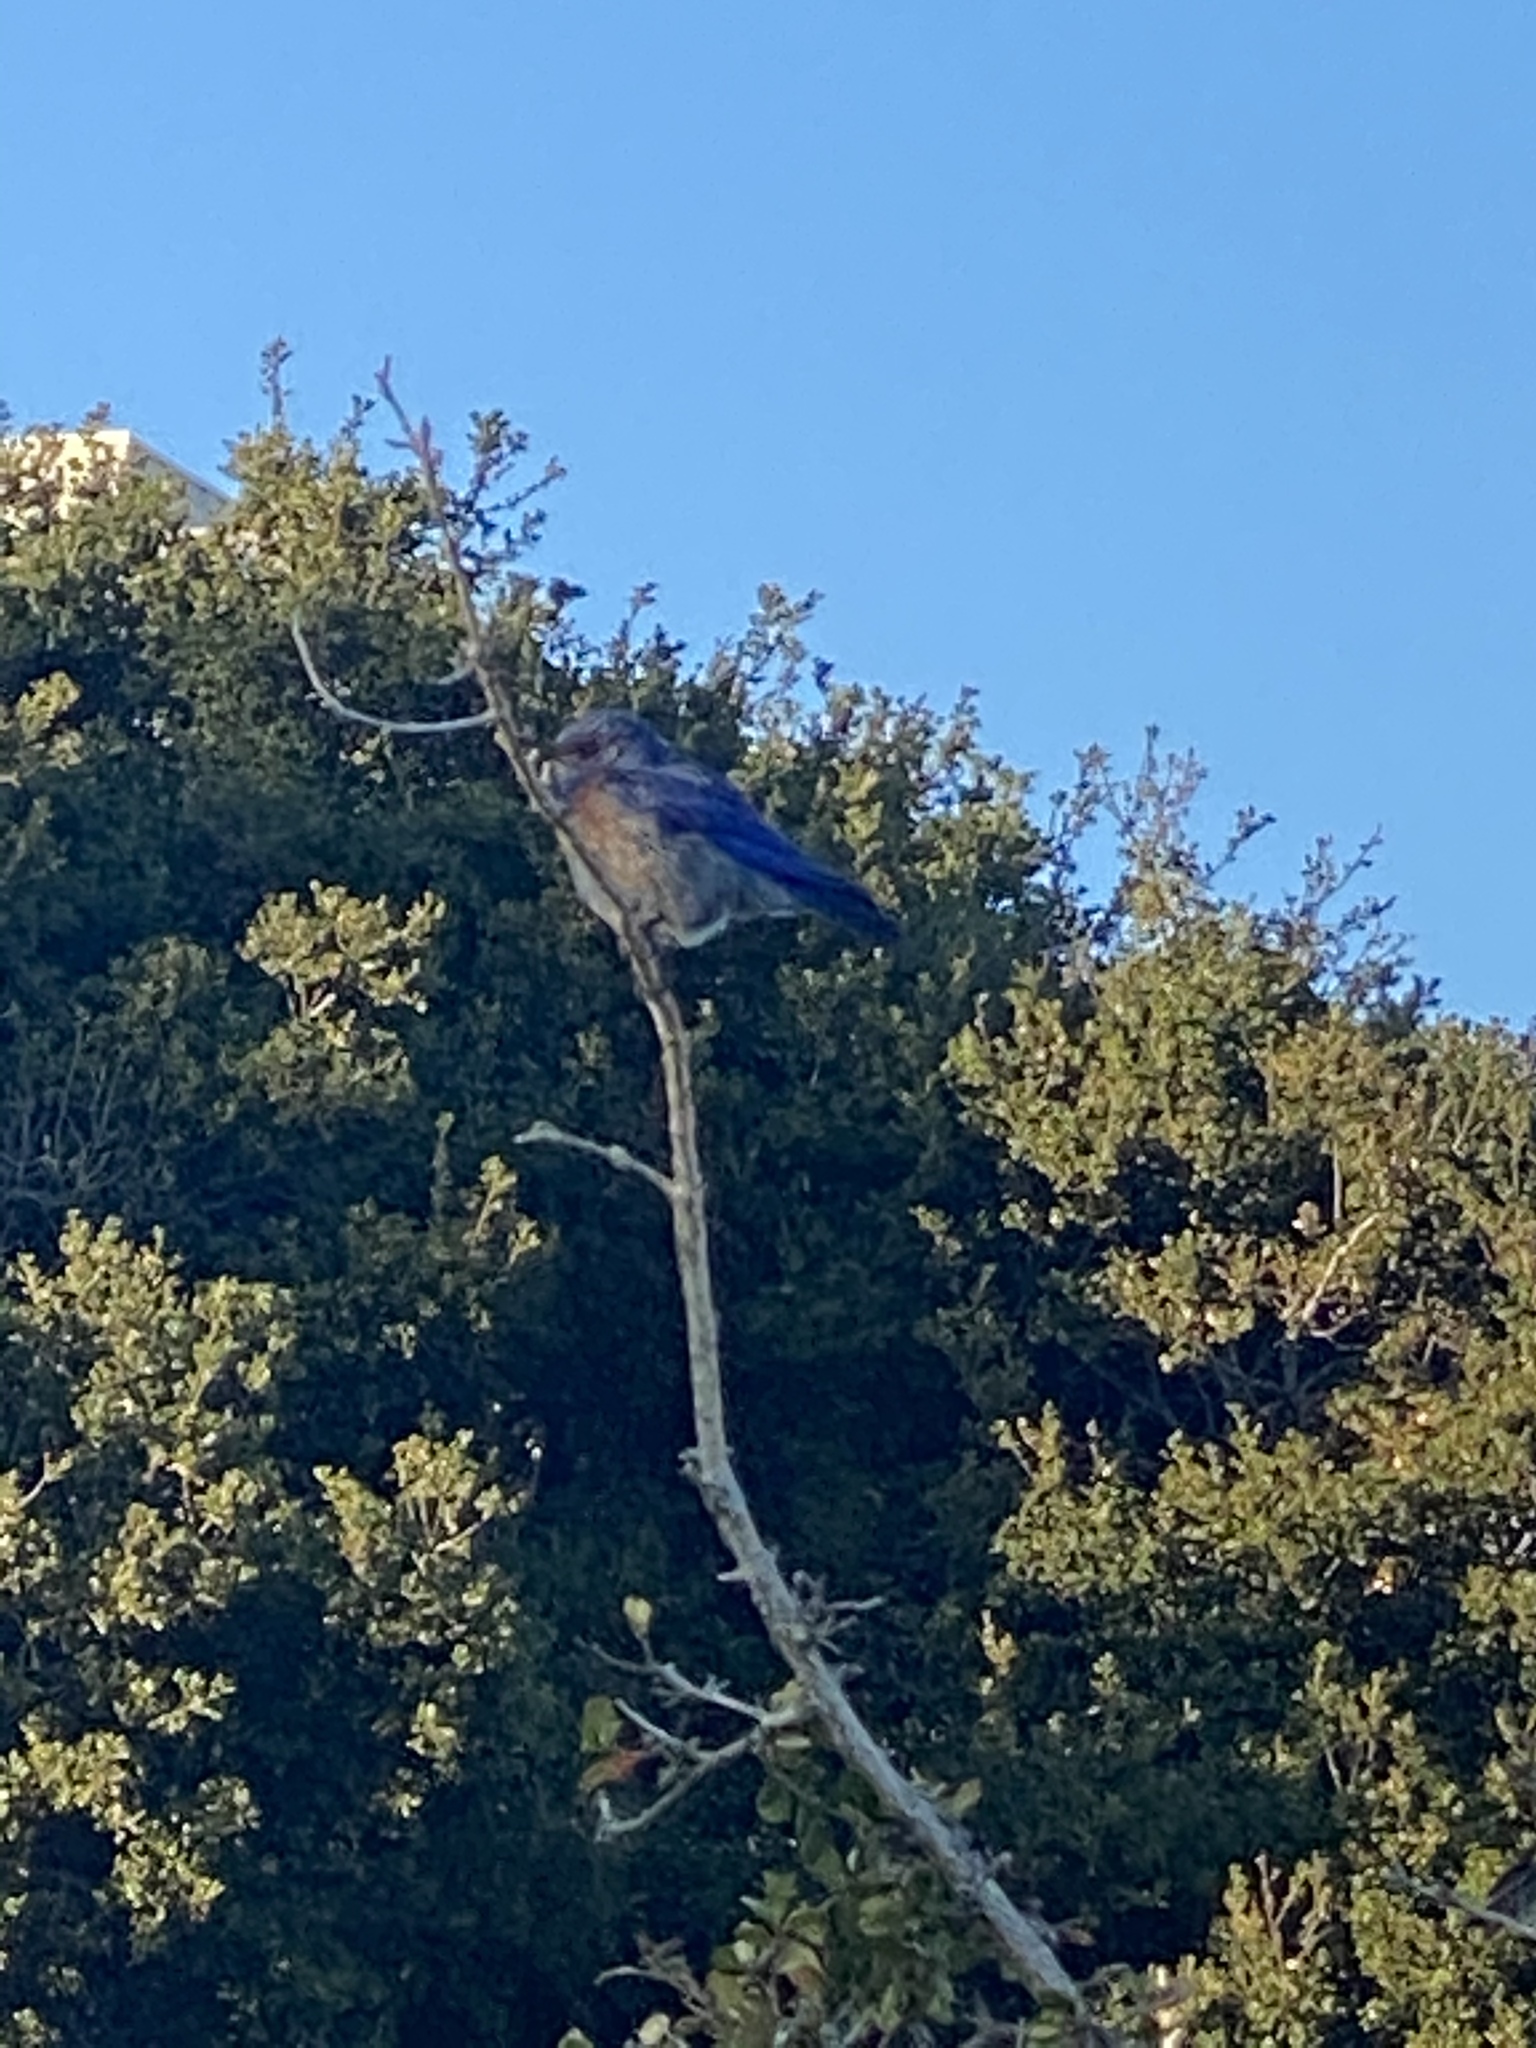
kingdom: Animalia
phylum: Chordata
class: Aves
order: Passeriformes
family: Turdidae
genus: Sialia
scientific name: Sialia mexicana
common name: Western bluebird
